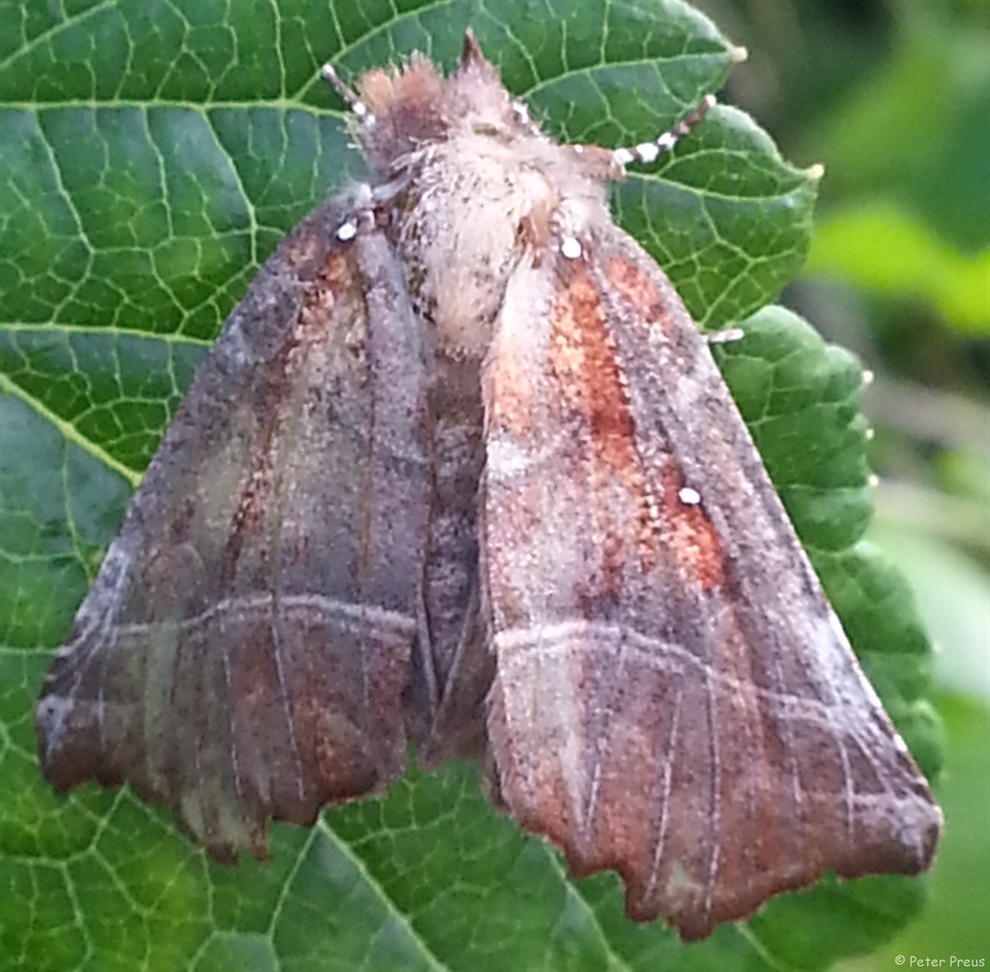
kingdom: Animalia
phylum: Arthropoda
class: Insecta
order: Lepidoptera
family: Erebidae
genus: Scoliopteryx
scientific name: Scoliopteryx libatrix
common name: Herald
